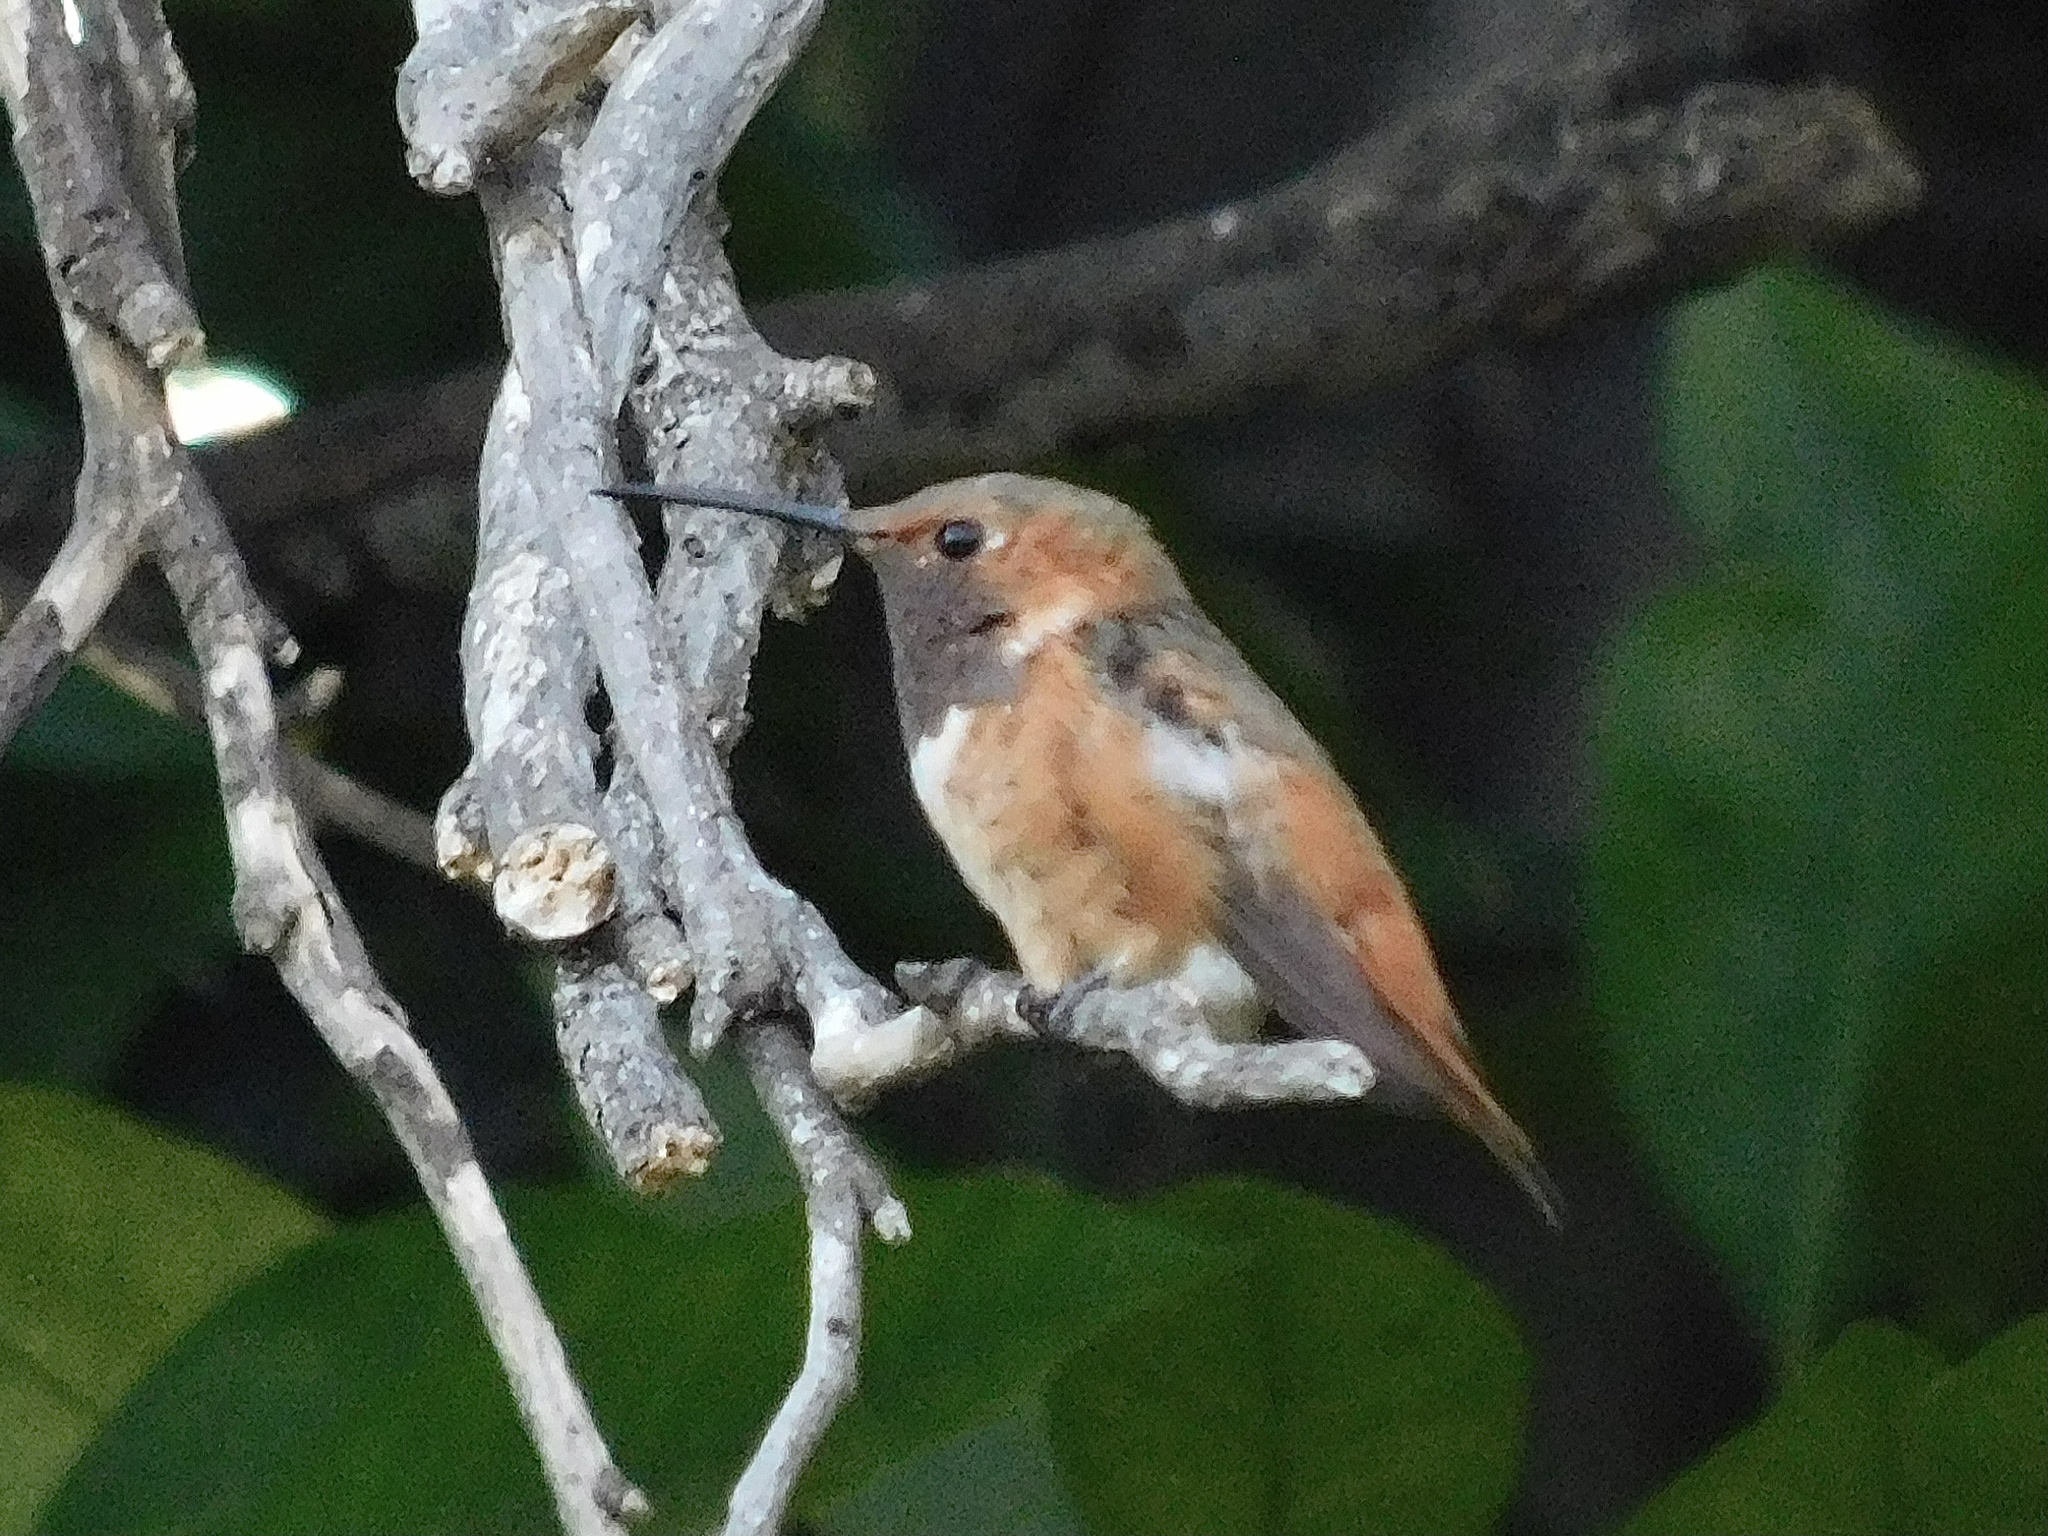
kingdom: Animalia
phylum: Chordata
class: Aves
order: Apodiformes
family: Trochilidae
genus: Selasphorus
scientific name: Selasphorus sasin
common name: Allen's hummingbird
